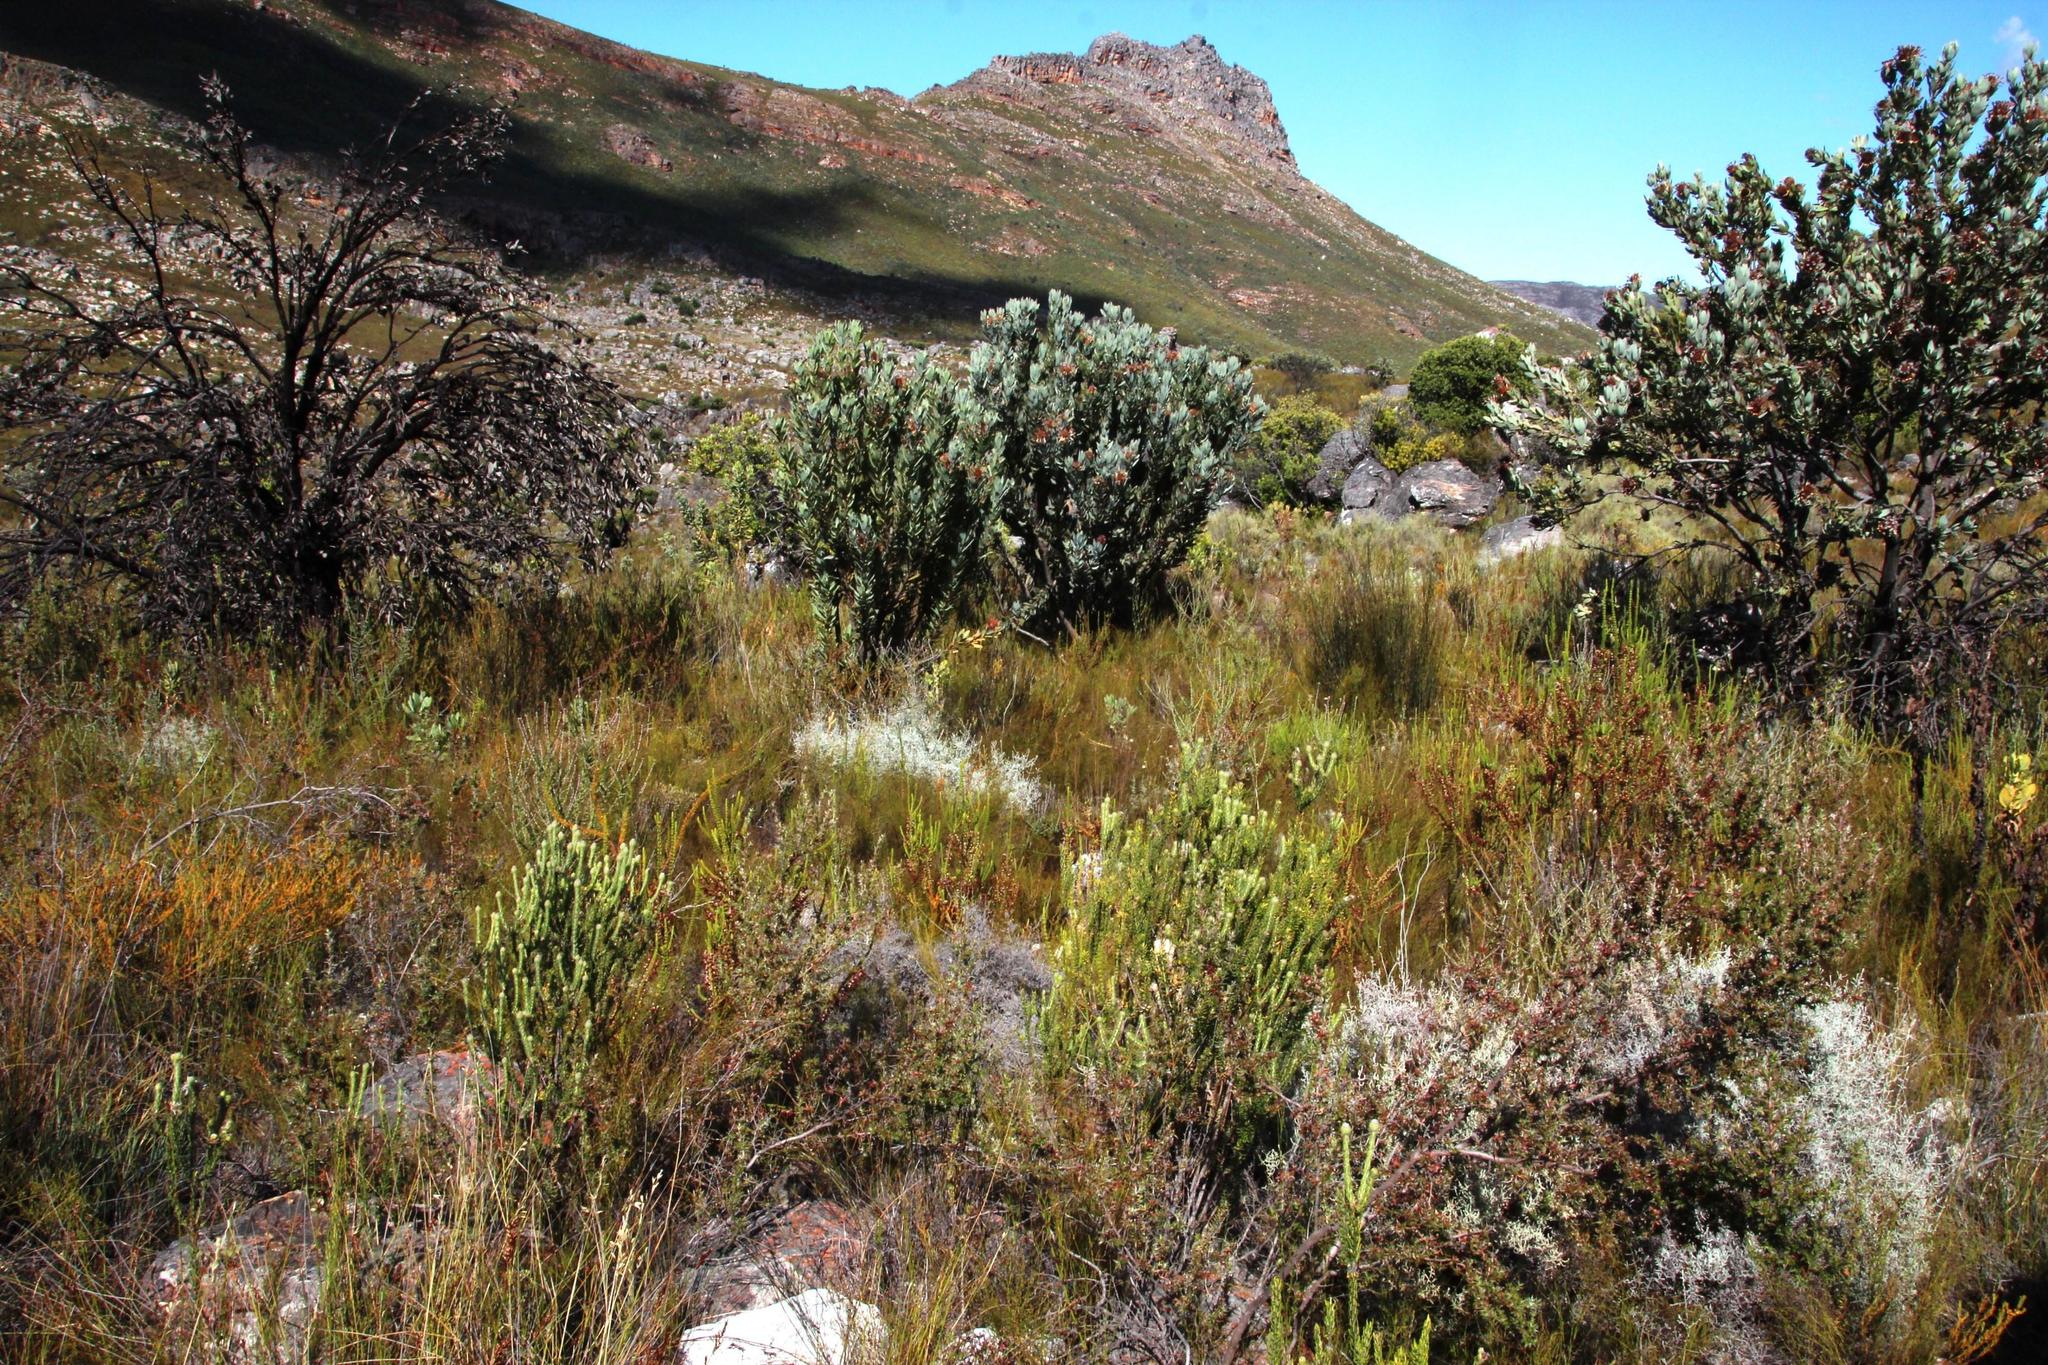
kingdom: Plantae
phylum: Tracheophyta
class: Magnoliopsida
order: Proteales
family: Proteaceae
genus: Protea
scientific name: Protea laurifolia
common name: Grey-leaf sugarbsh
